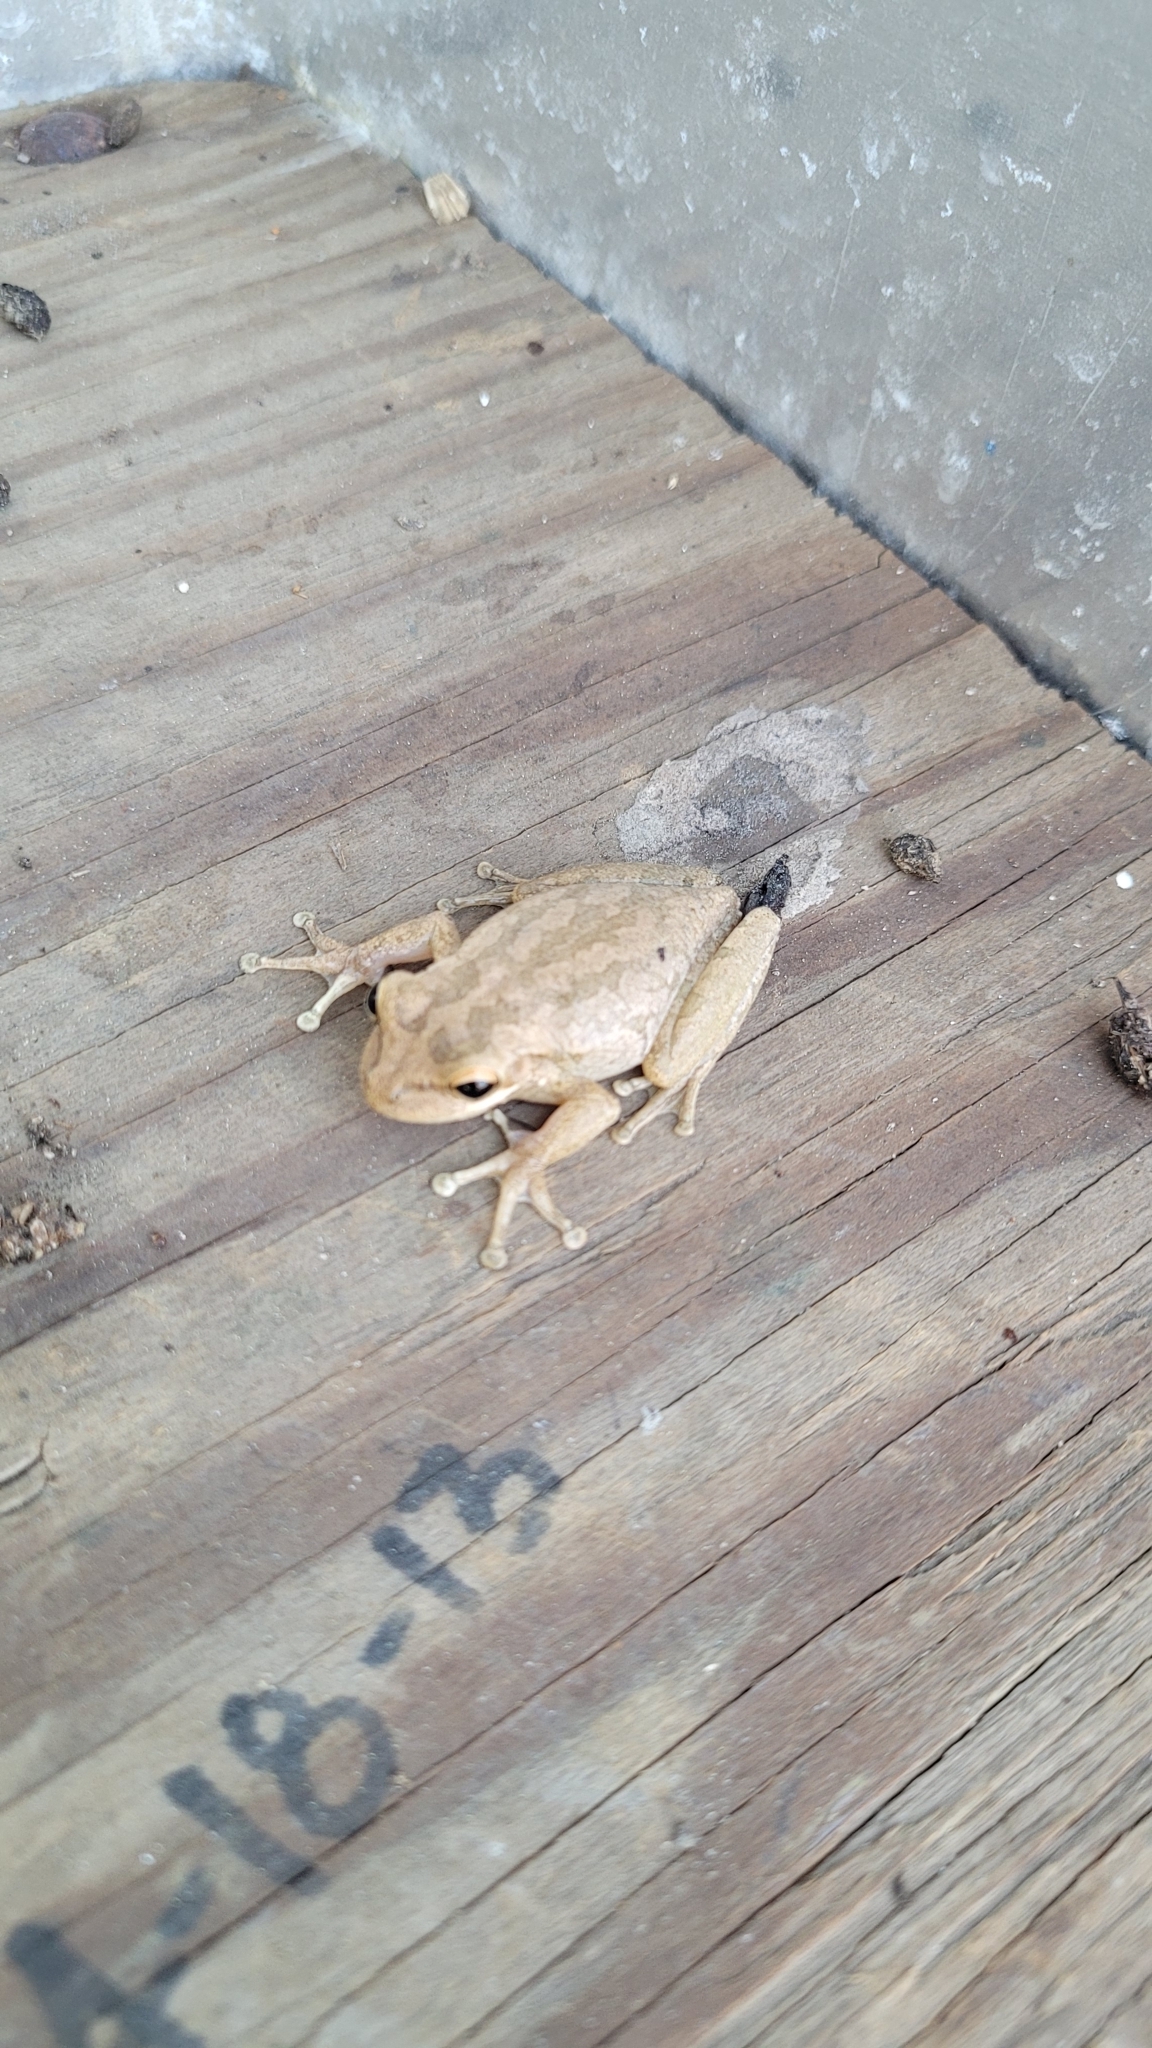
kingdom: Animalia
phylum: Chordata
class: Amphibia
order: Anura
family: Hylidae
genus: Osteopilus
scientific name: Osteopilus septentrionalis
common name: Cuban treefrog
